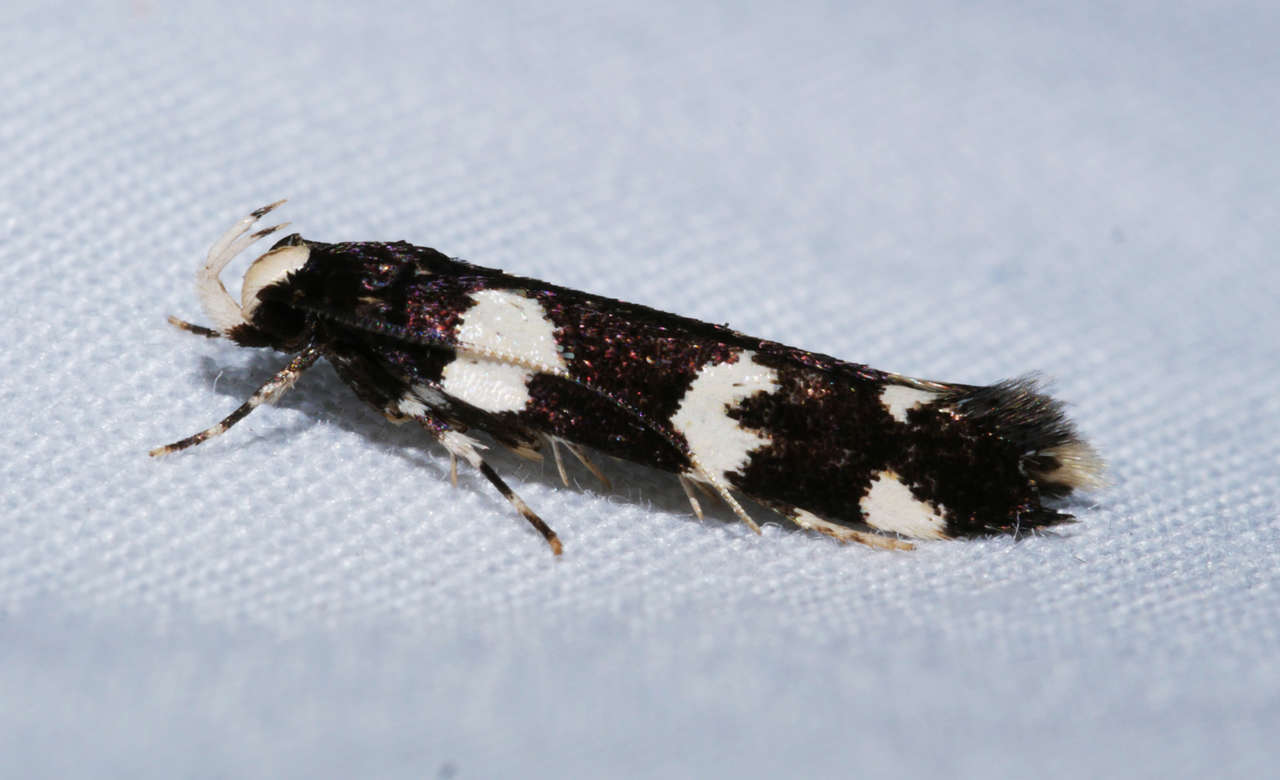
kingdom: Animalia
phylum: Arthropoda
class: Insecta
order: Lepidoptera
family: Cosmopterigidae
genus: Limnaecia
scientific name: Limnaecia scoliosema
